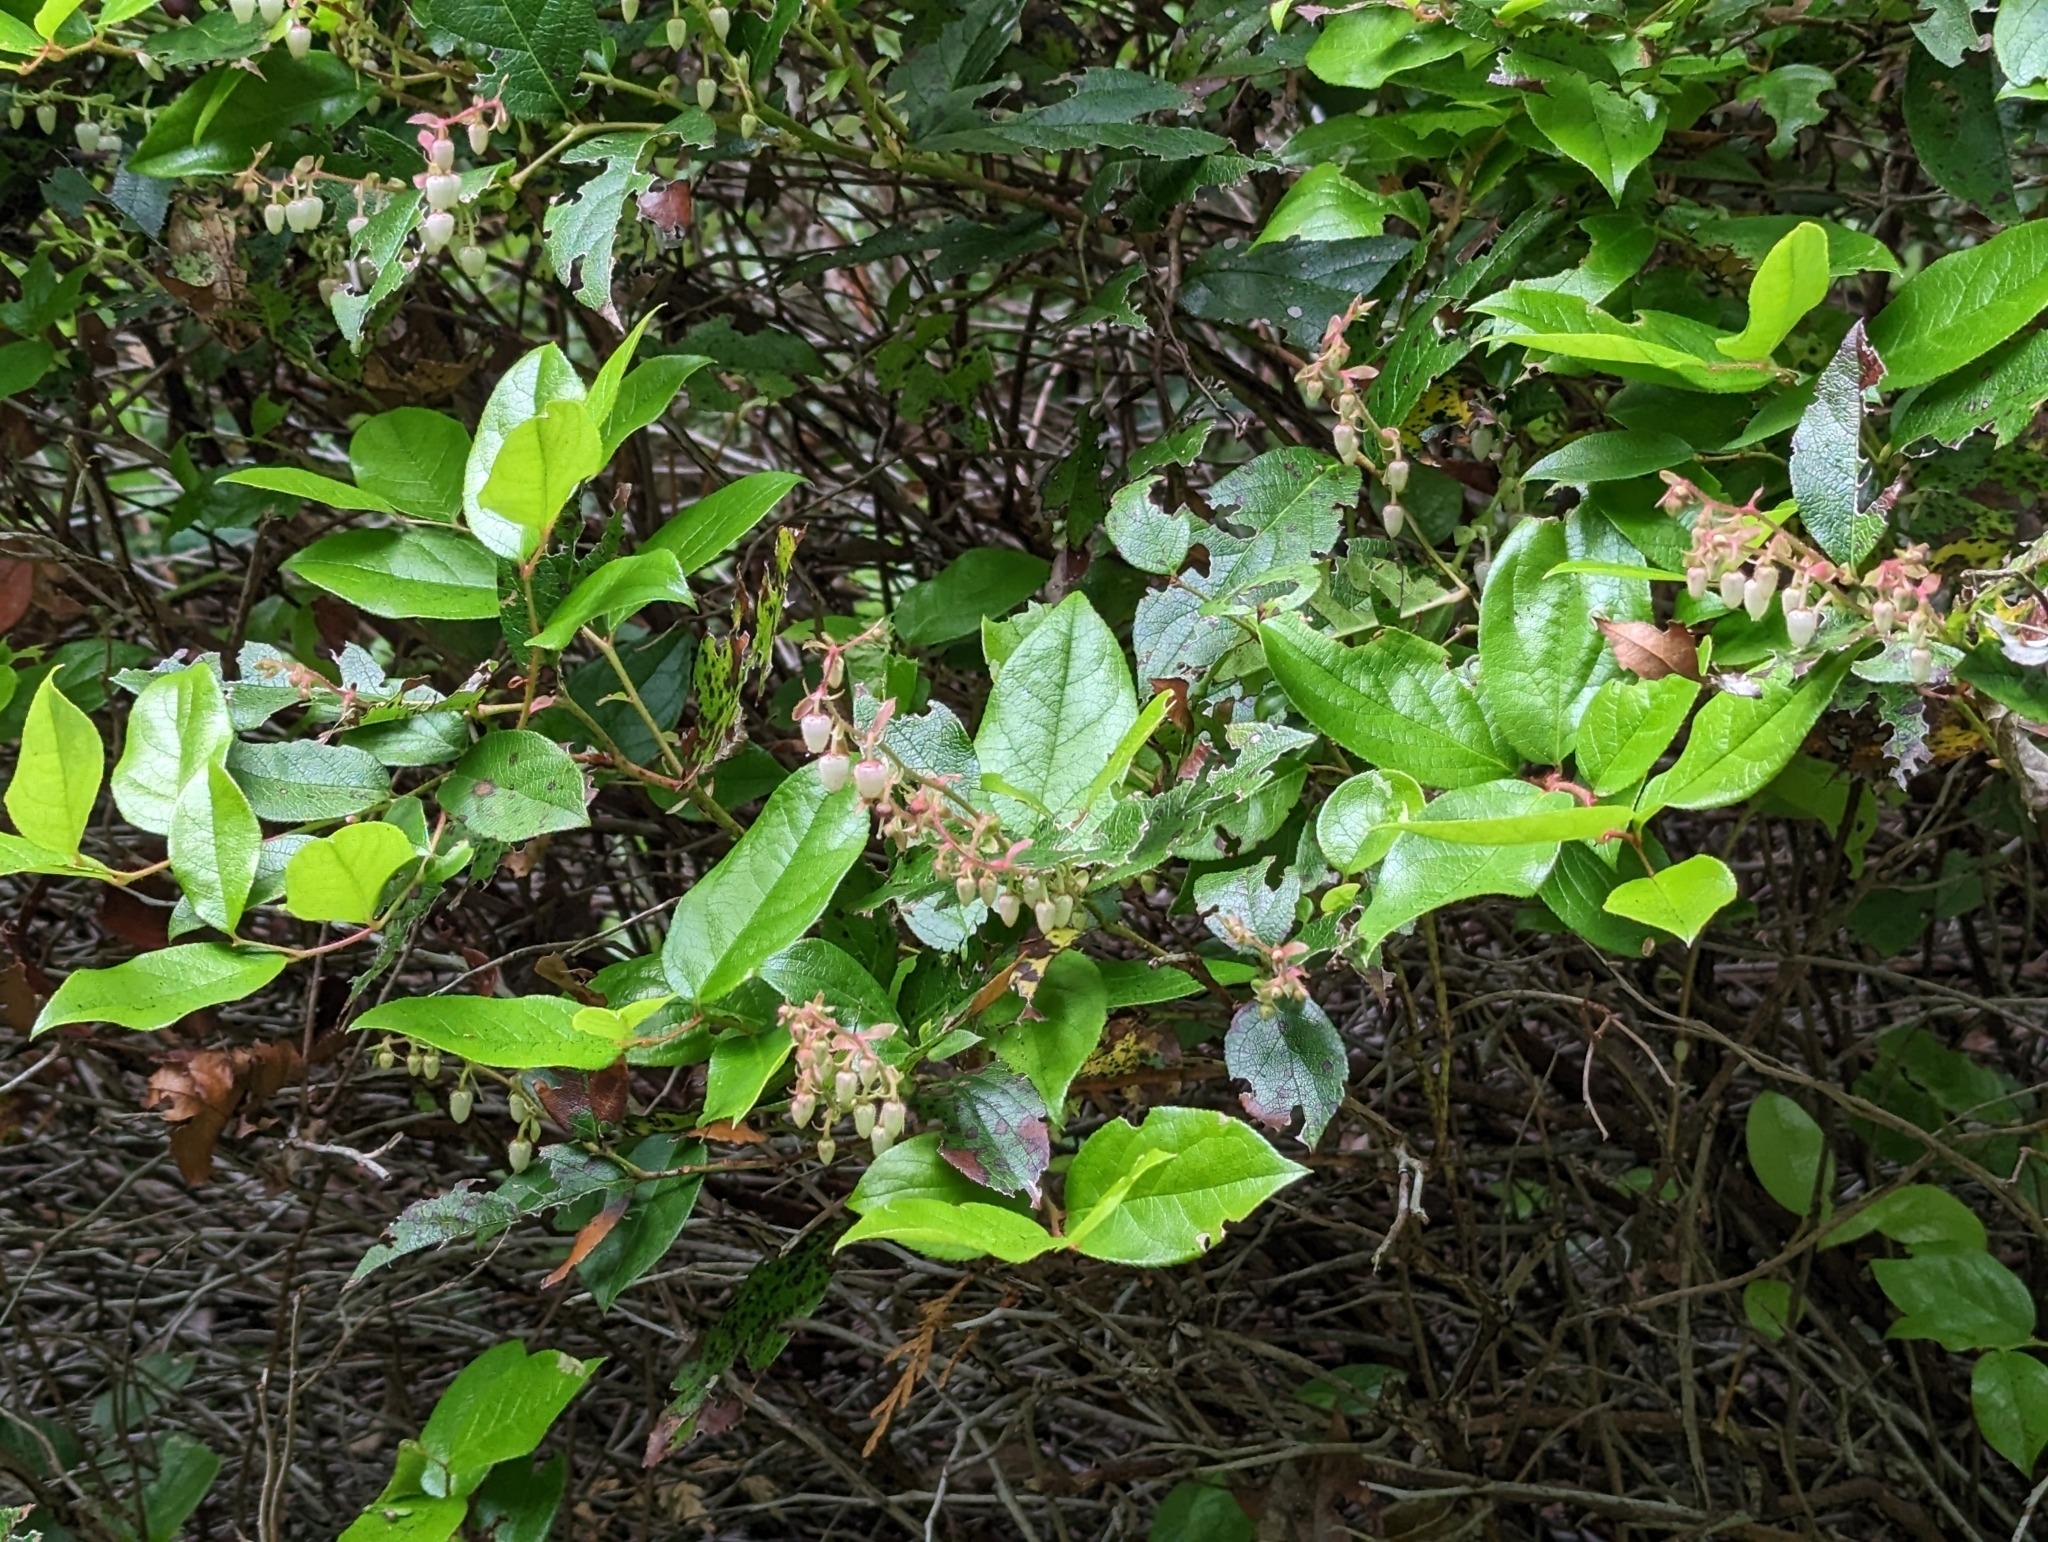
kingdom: Plantae
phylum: Tracheophyta
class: Magnoliopsida
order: Ericales
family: Ericaceae
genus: Gaultheria
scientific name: Gaultheria shallon
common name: Shallon
